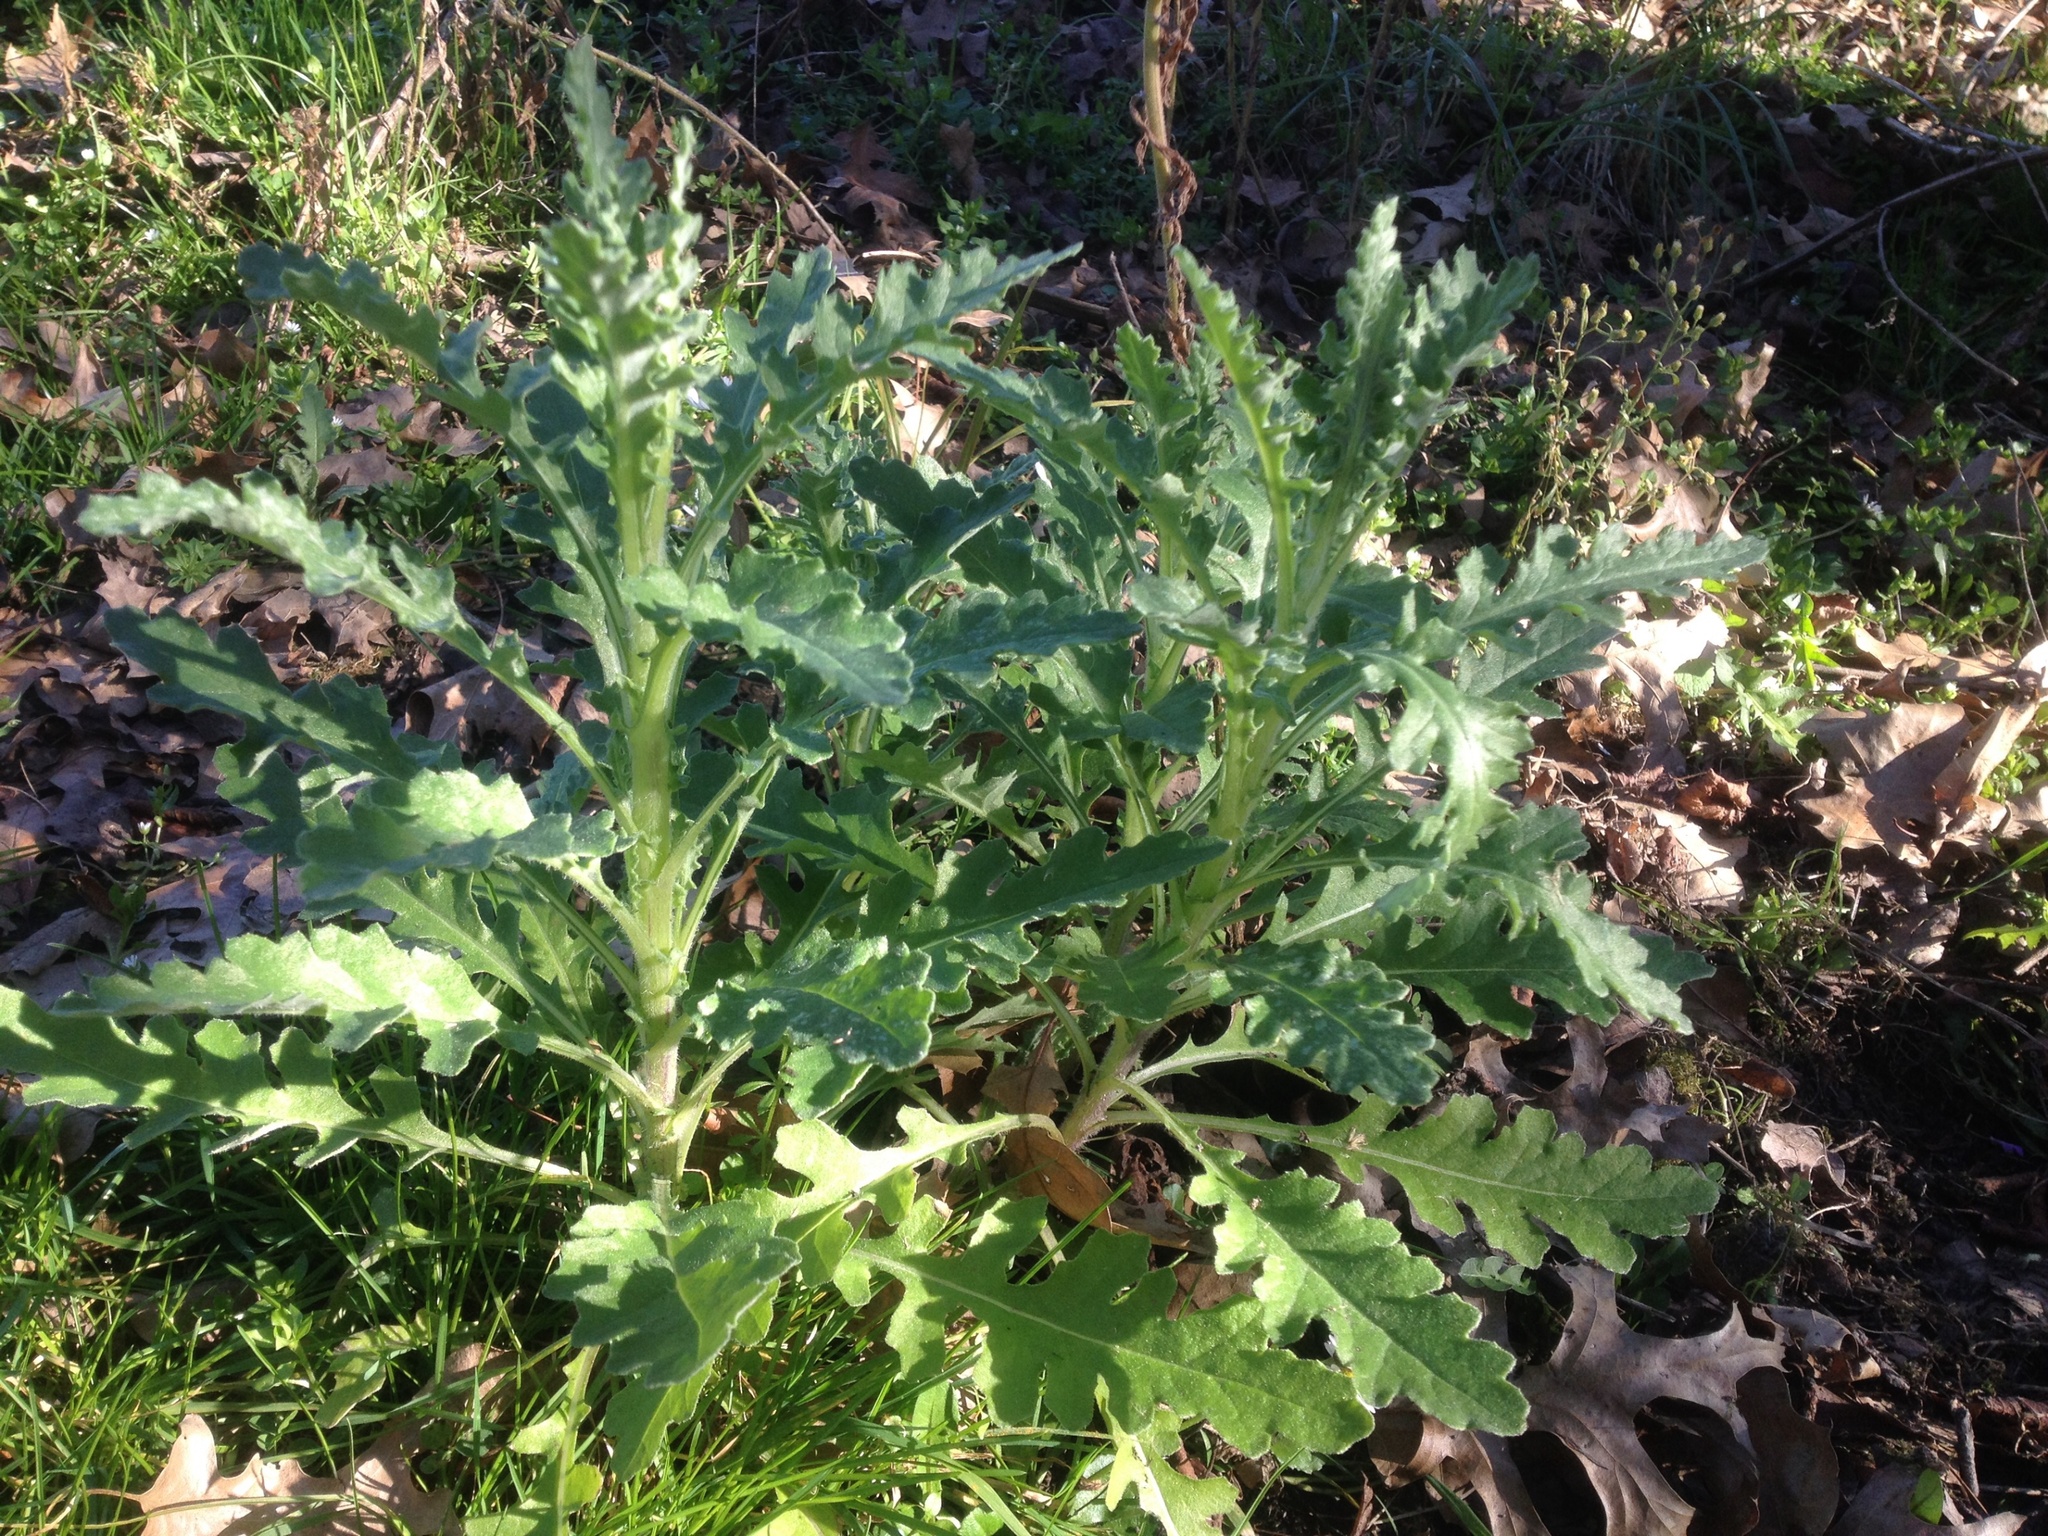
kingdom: Plantae
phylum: Tracheophyta
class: Magnoliopsida
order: Asterales
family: Asteraceae
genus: Senecio
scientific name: Senecio glomeratus
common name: Cutleaf burnweed
